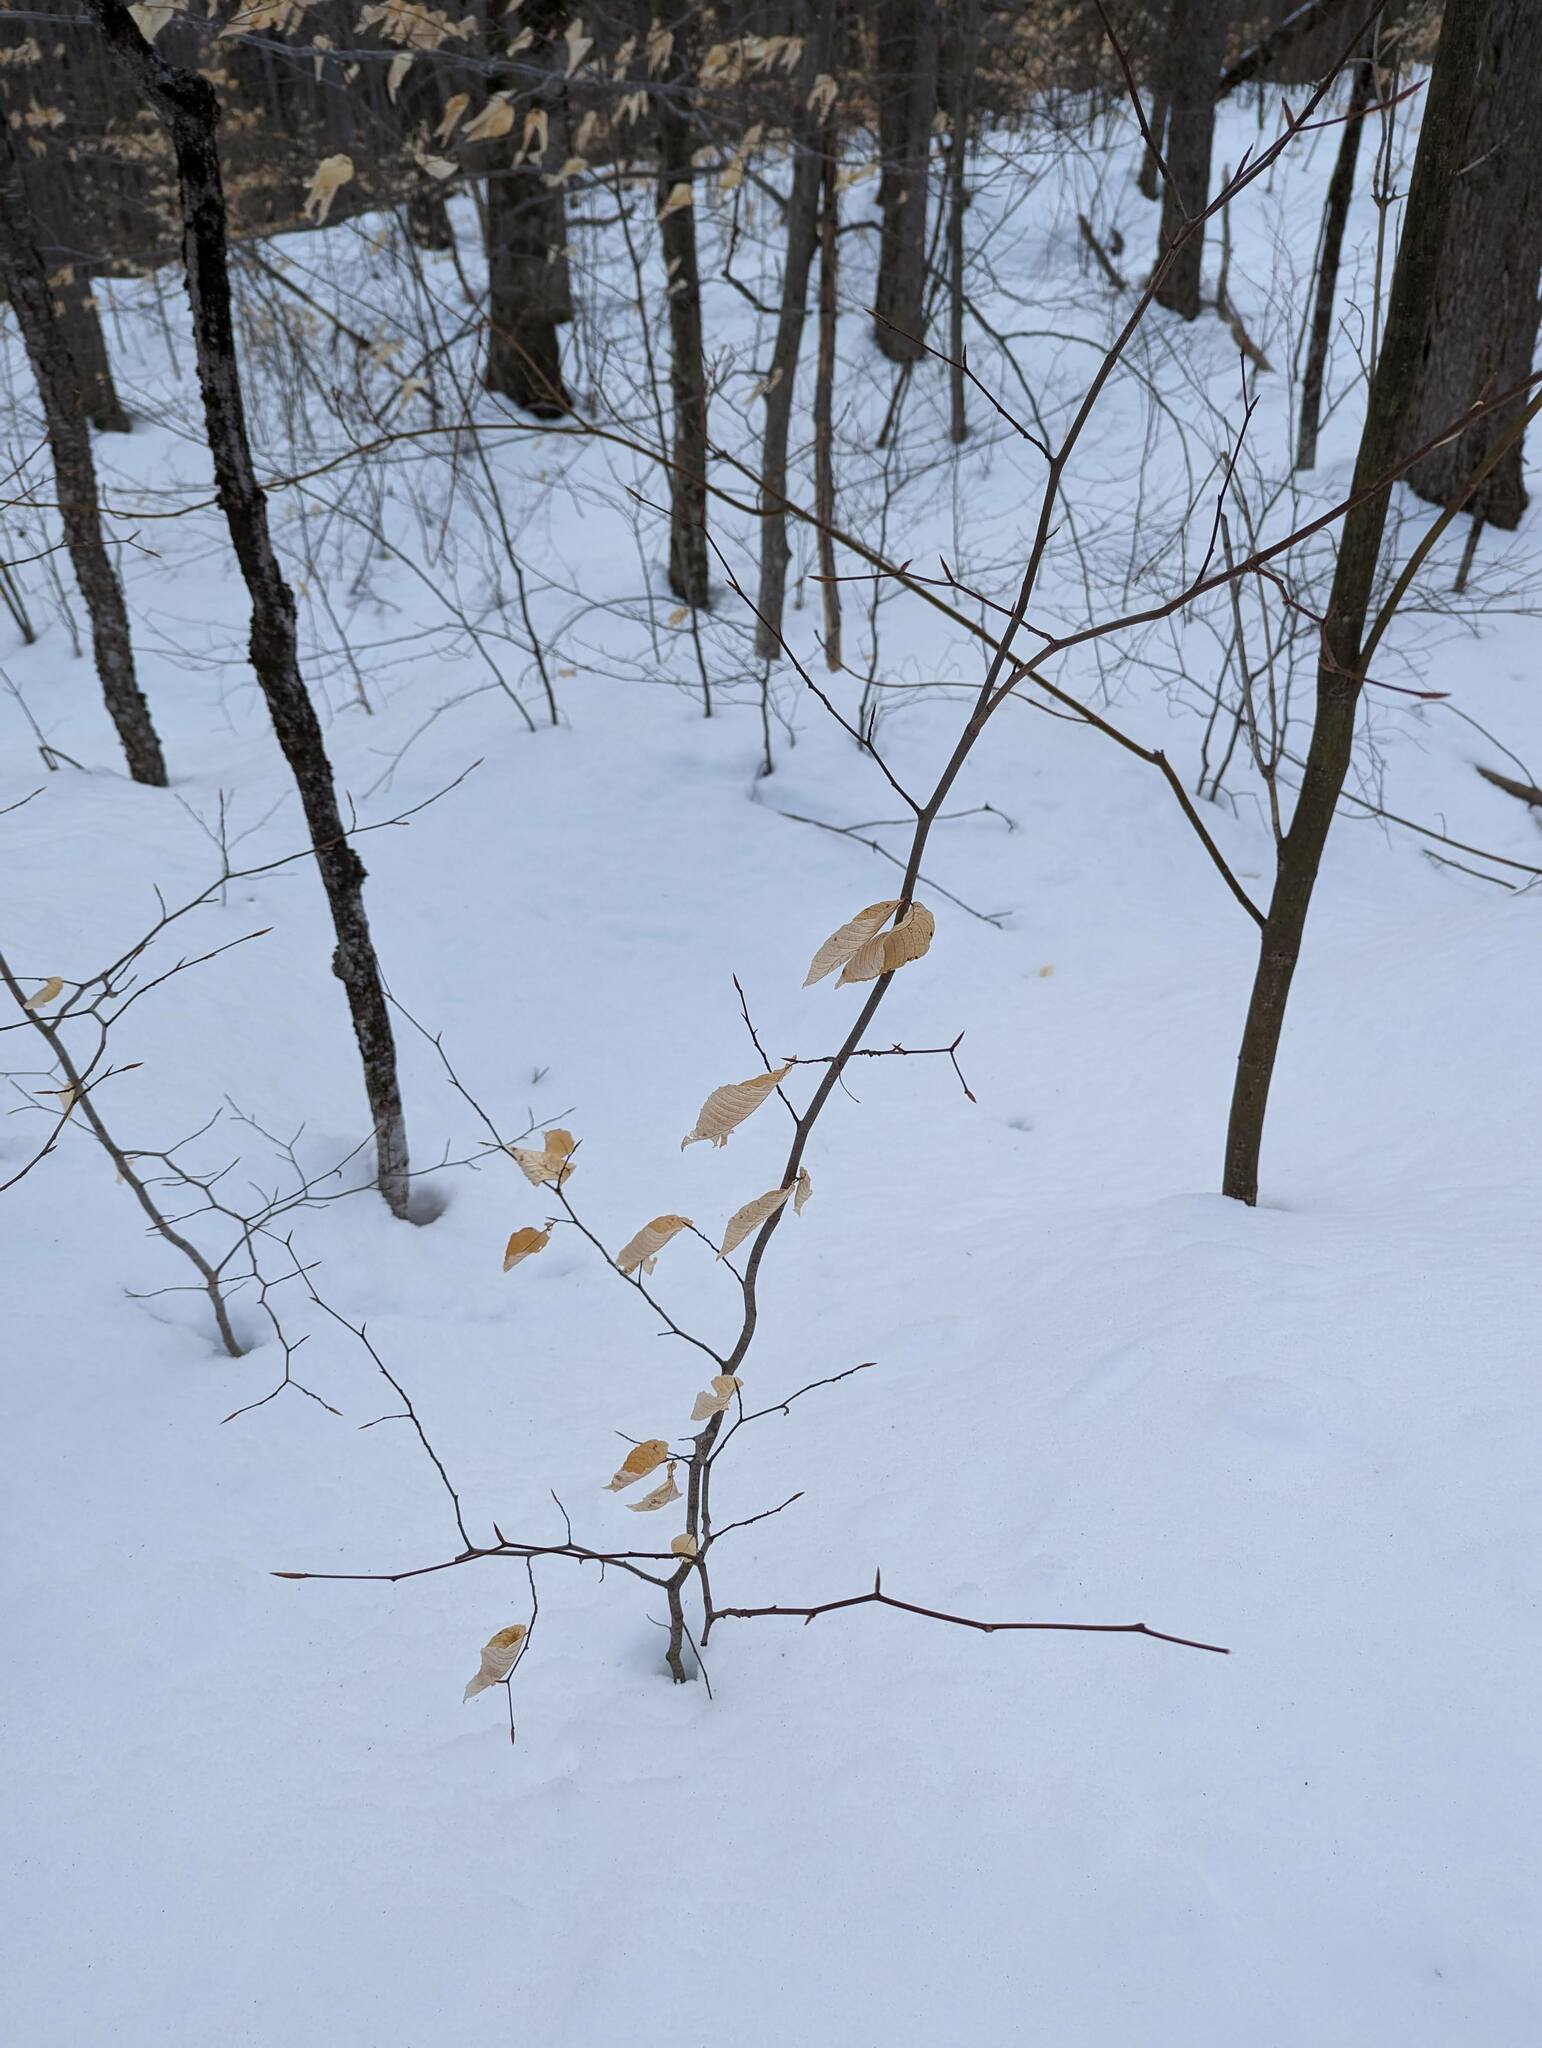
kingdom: Plantae
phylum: Tracheophyta
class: Magnoliopsida
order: Fagales
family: Fagaceae
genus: Fagus
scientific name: Fagus grandifolia
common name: American beech
